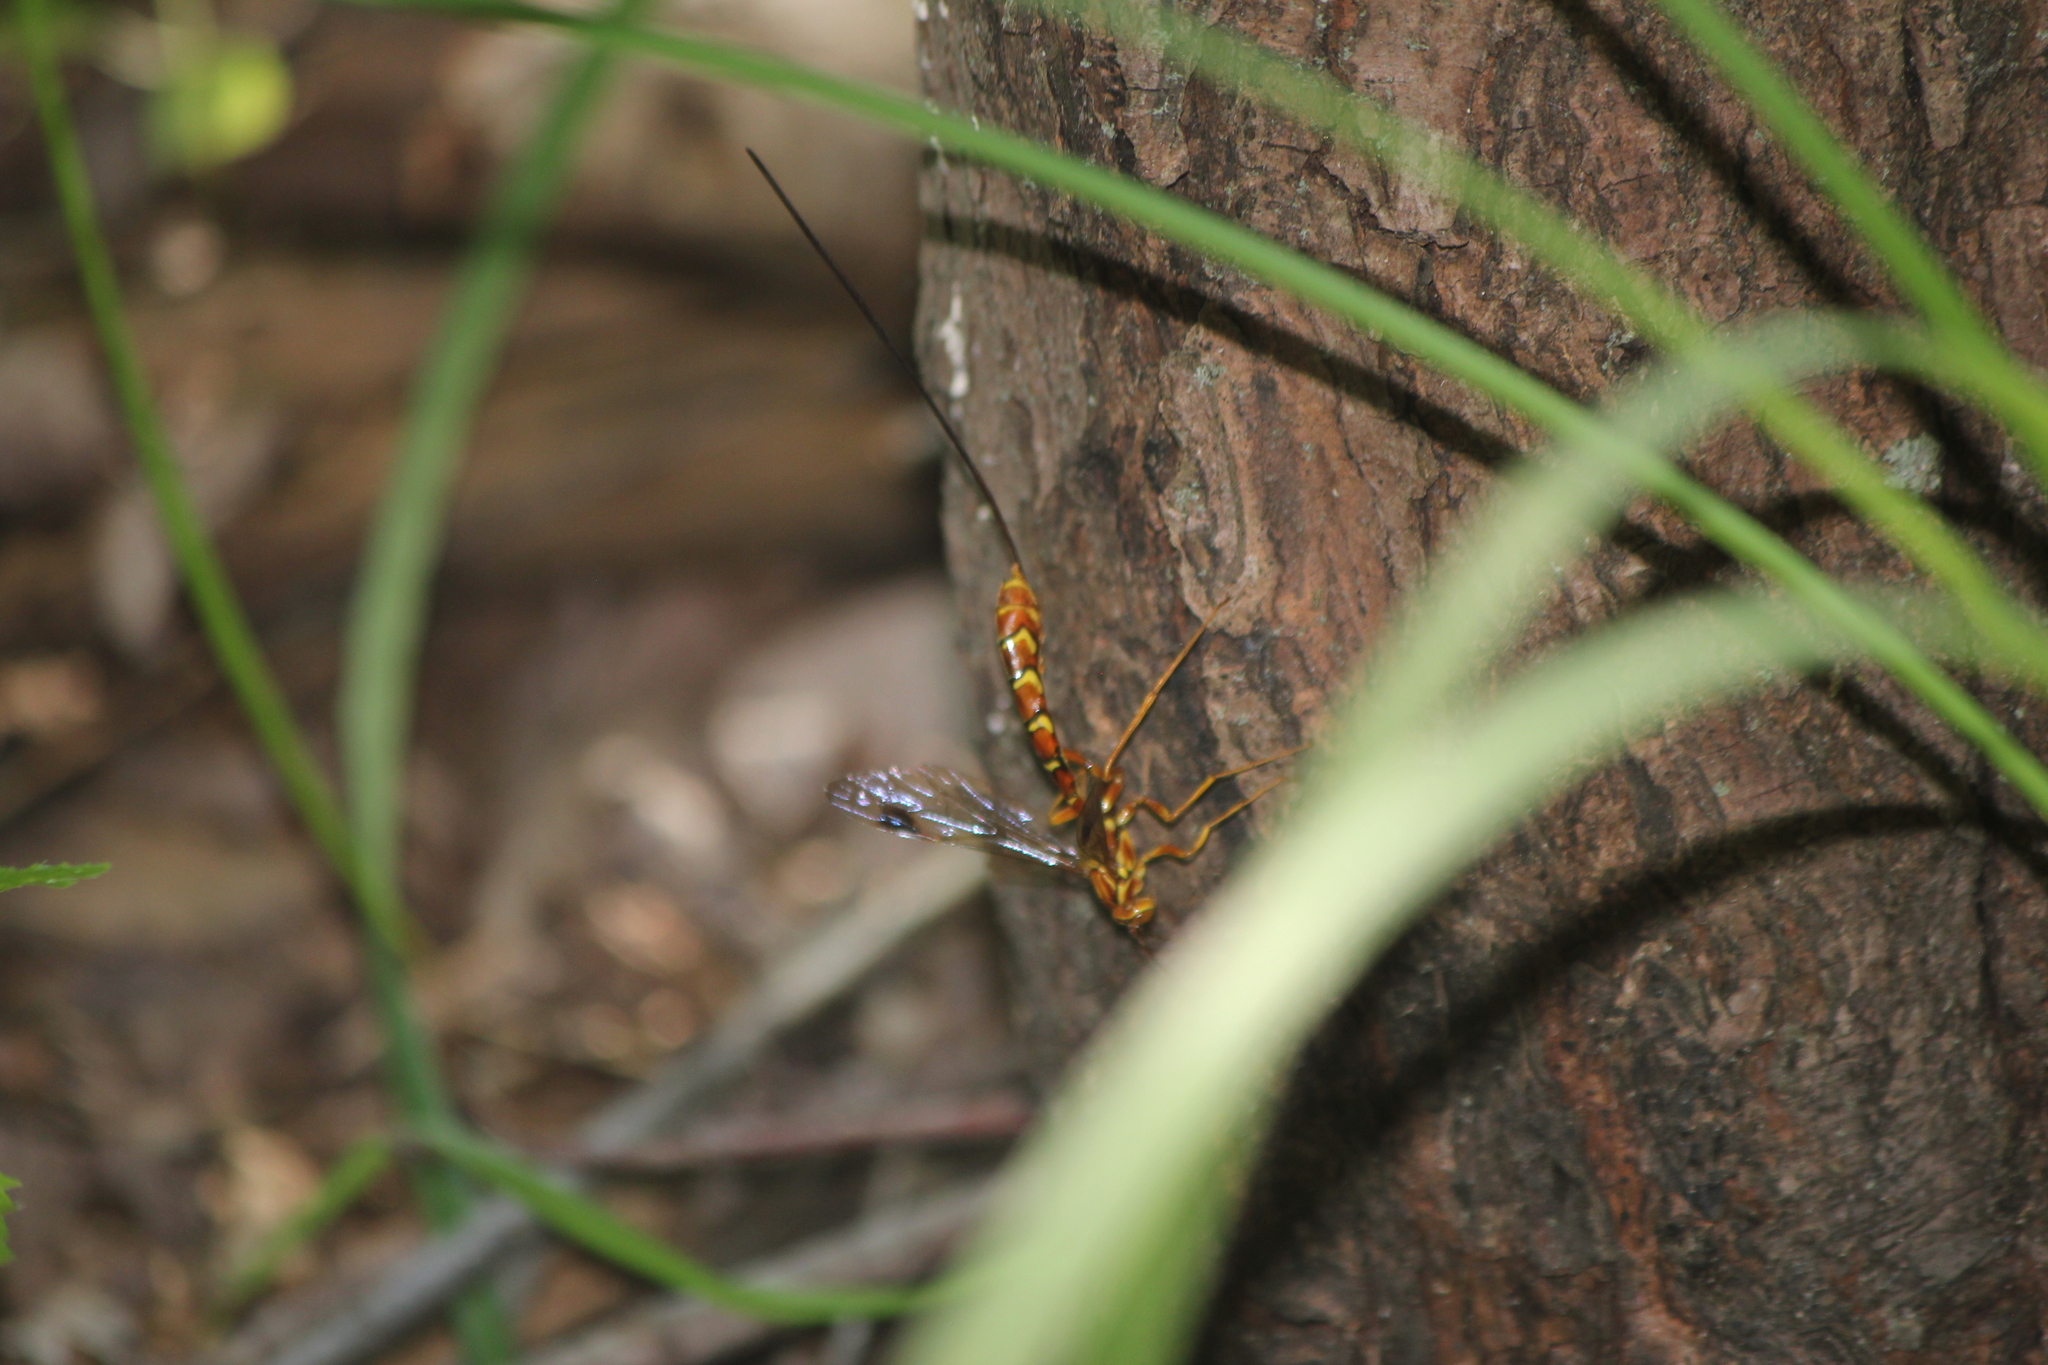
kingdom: Animalia
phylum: Arthropoda
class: Insecta
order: Hymenoptera
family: Ichneumonidae
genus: Megarhyssa
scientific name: Megarhyssa greenei
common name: Greene's giant ichneumonid wasp
